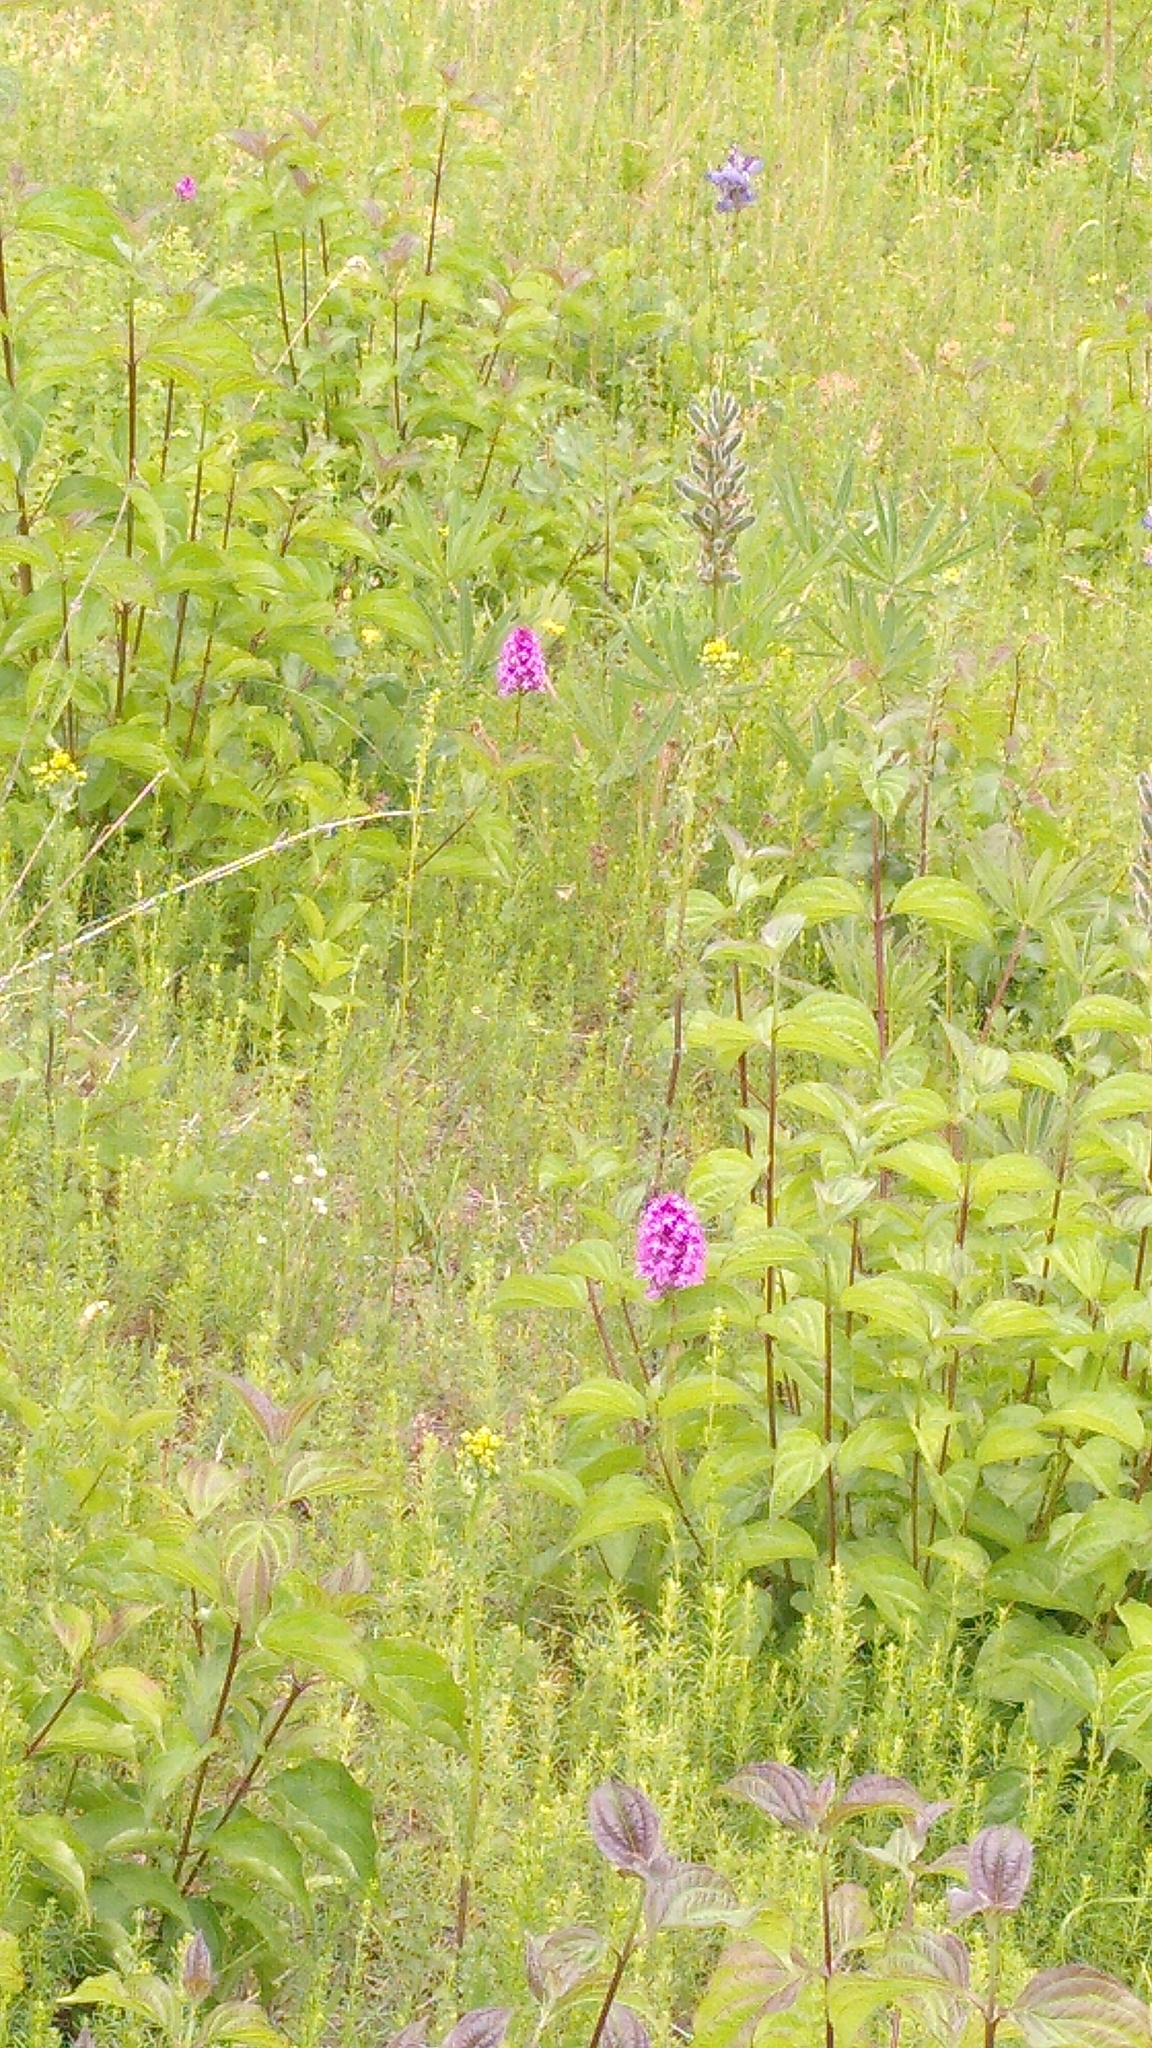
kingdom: Plantae
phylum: Tracheophyta
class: Liliopsida
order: Asparagales
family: Orchidaceae
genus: Anacamptis
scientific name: Anacamptis pyramidalis
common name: Pyramidal orchid
